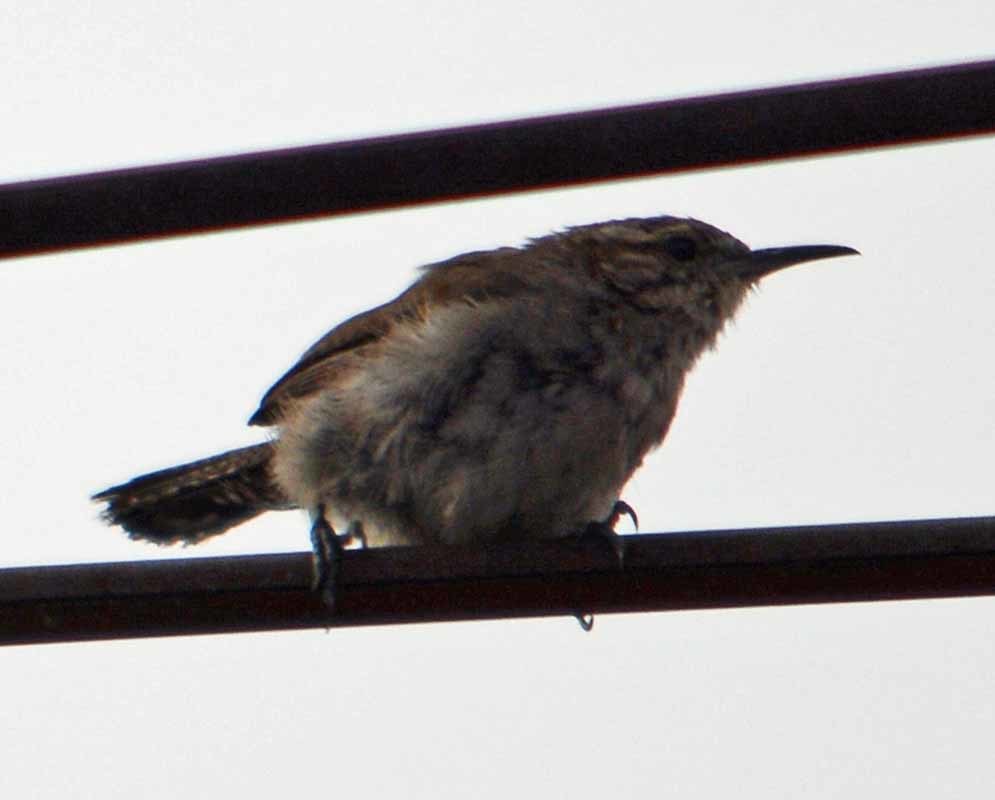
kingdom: Animalia
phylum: Chordata
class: Aves
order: Passeriformes
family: Troglodytidae
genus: Thryomanes
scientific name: Thryomanes bewickii
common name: Bewick's wren
